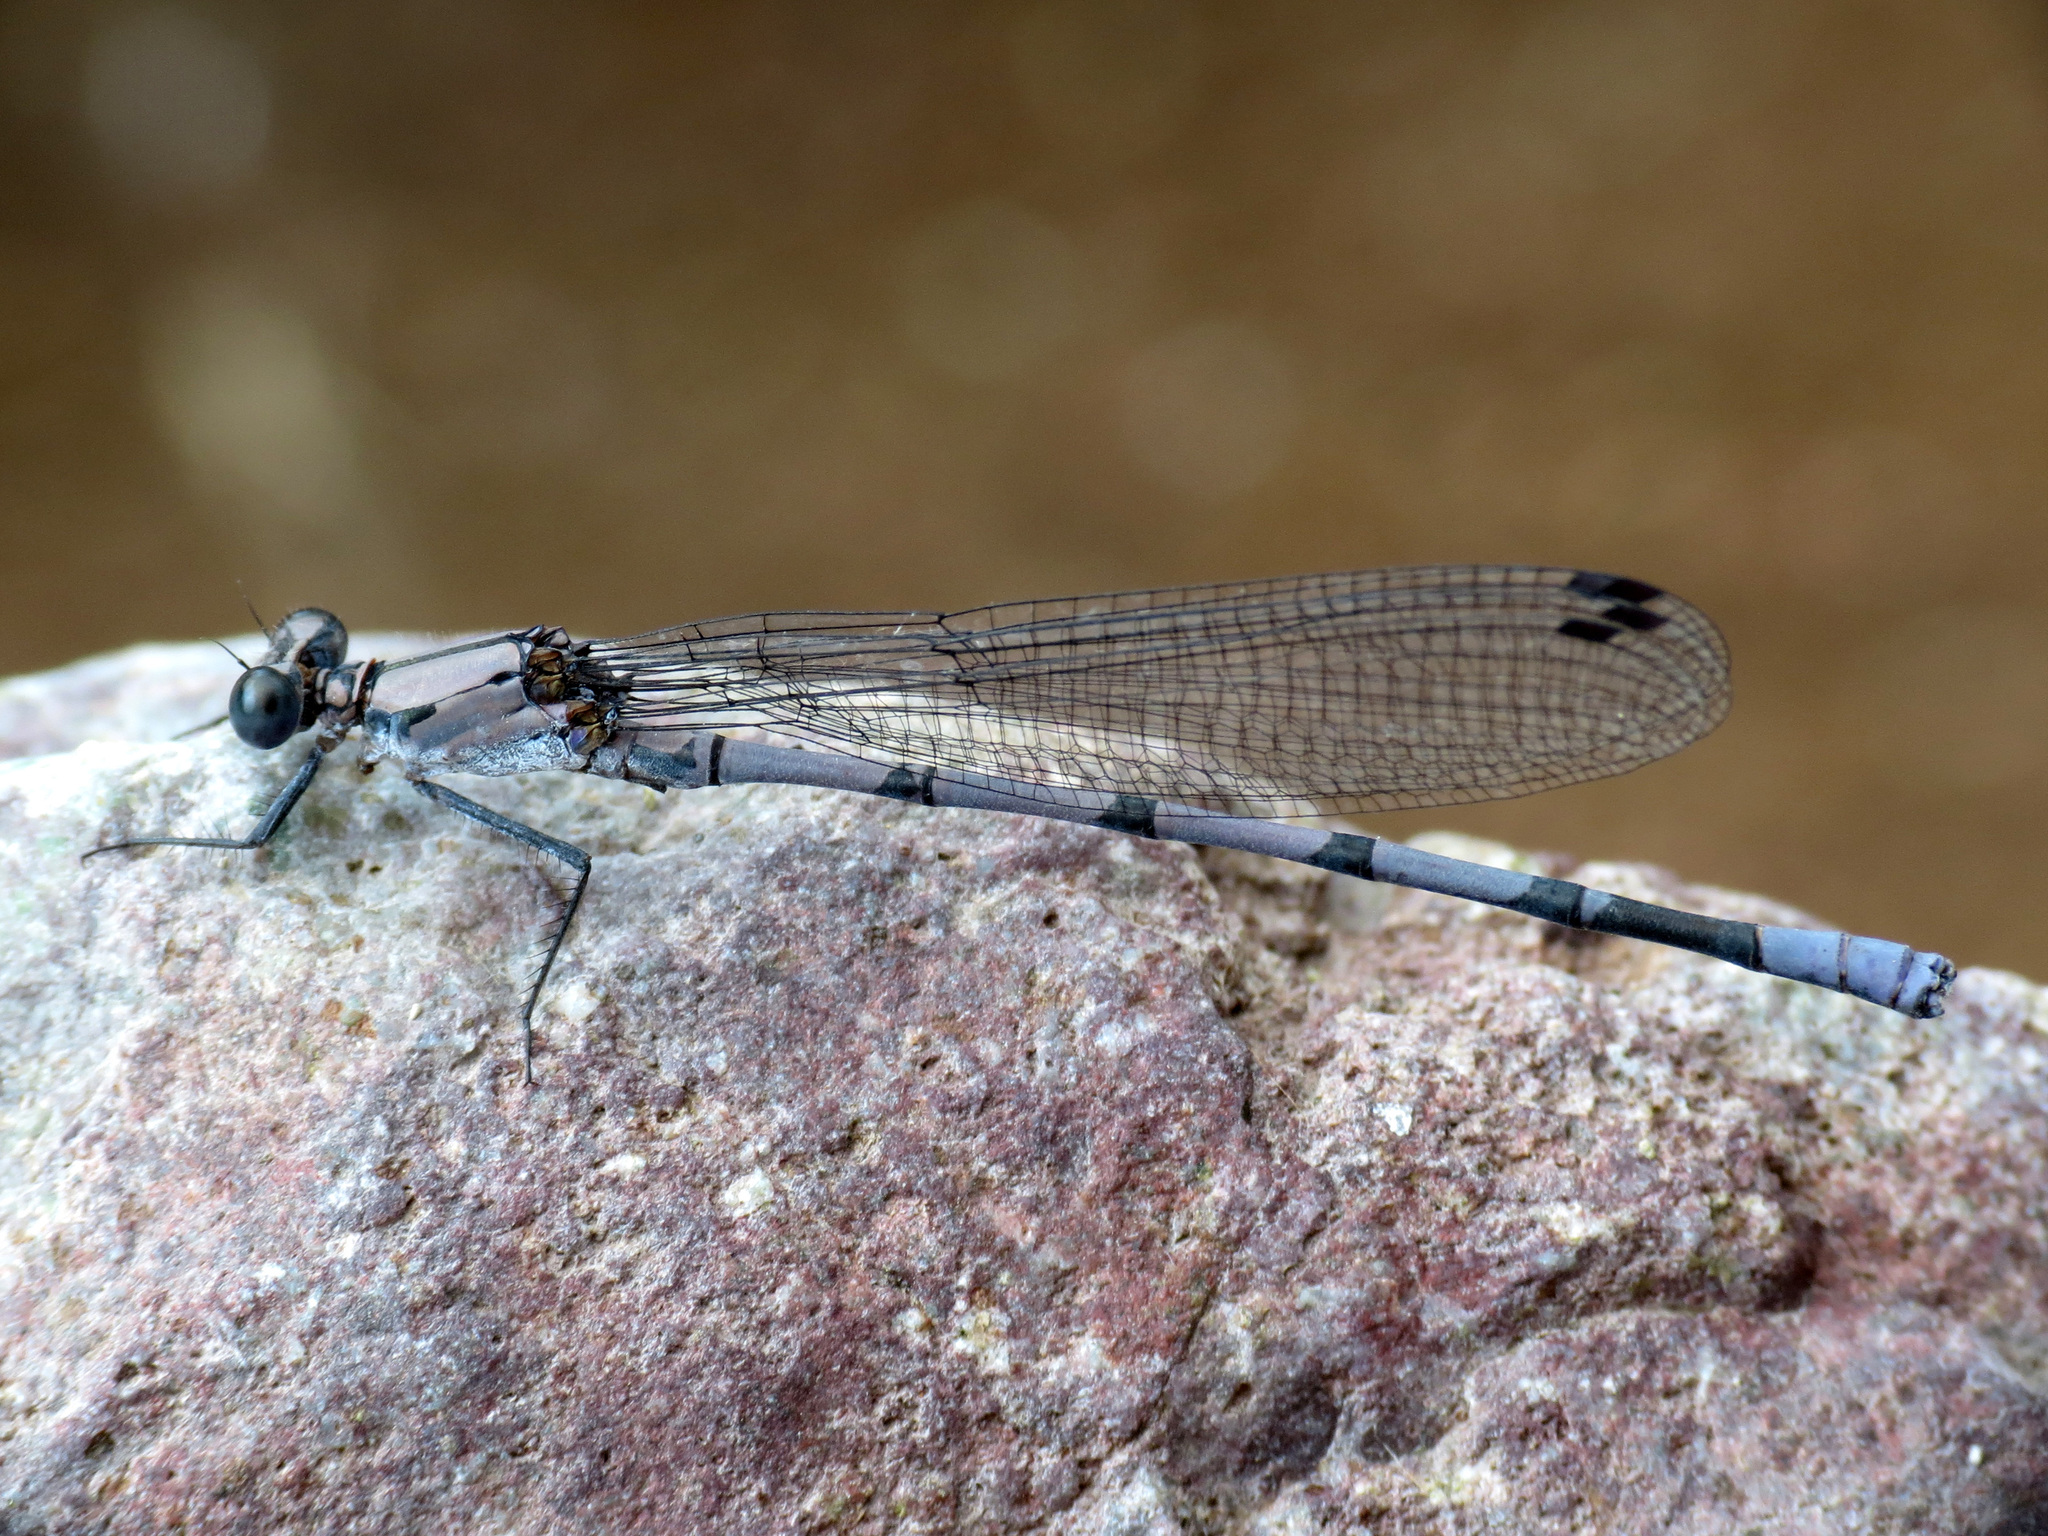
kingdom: Animalia
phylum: Arthropoda
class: Insecta
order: Odonata
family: Coenagrionidae
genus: Argia
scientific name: Argia tonto
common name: Tonto dancer
